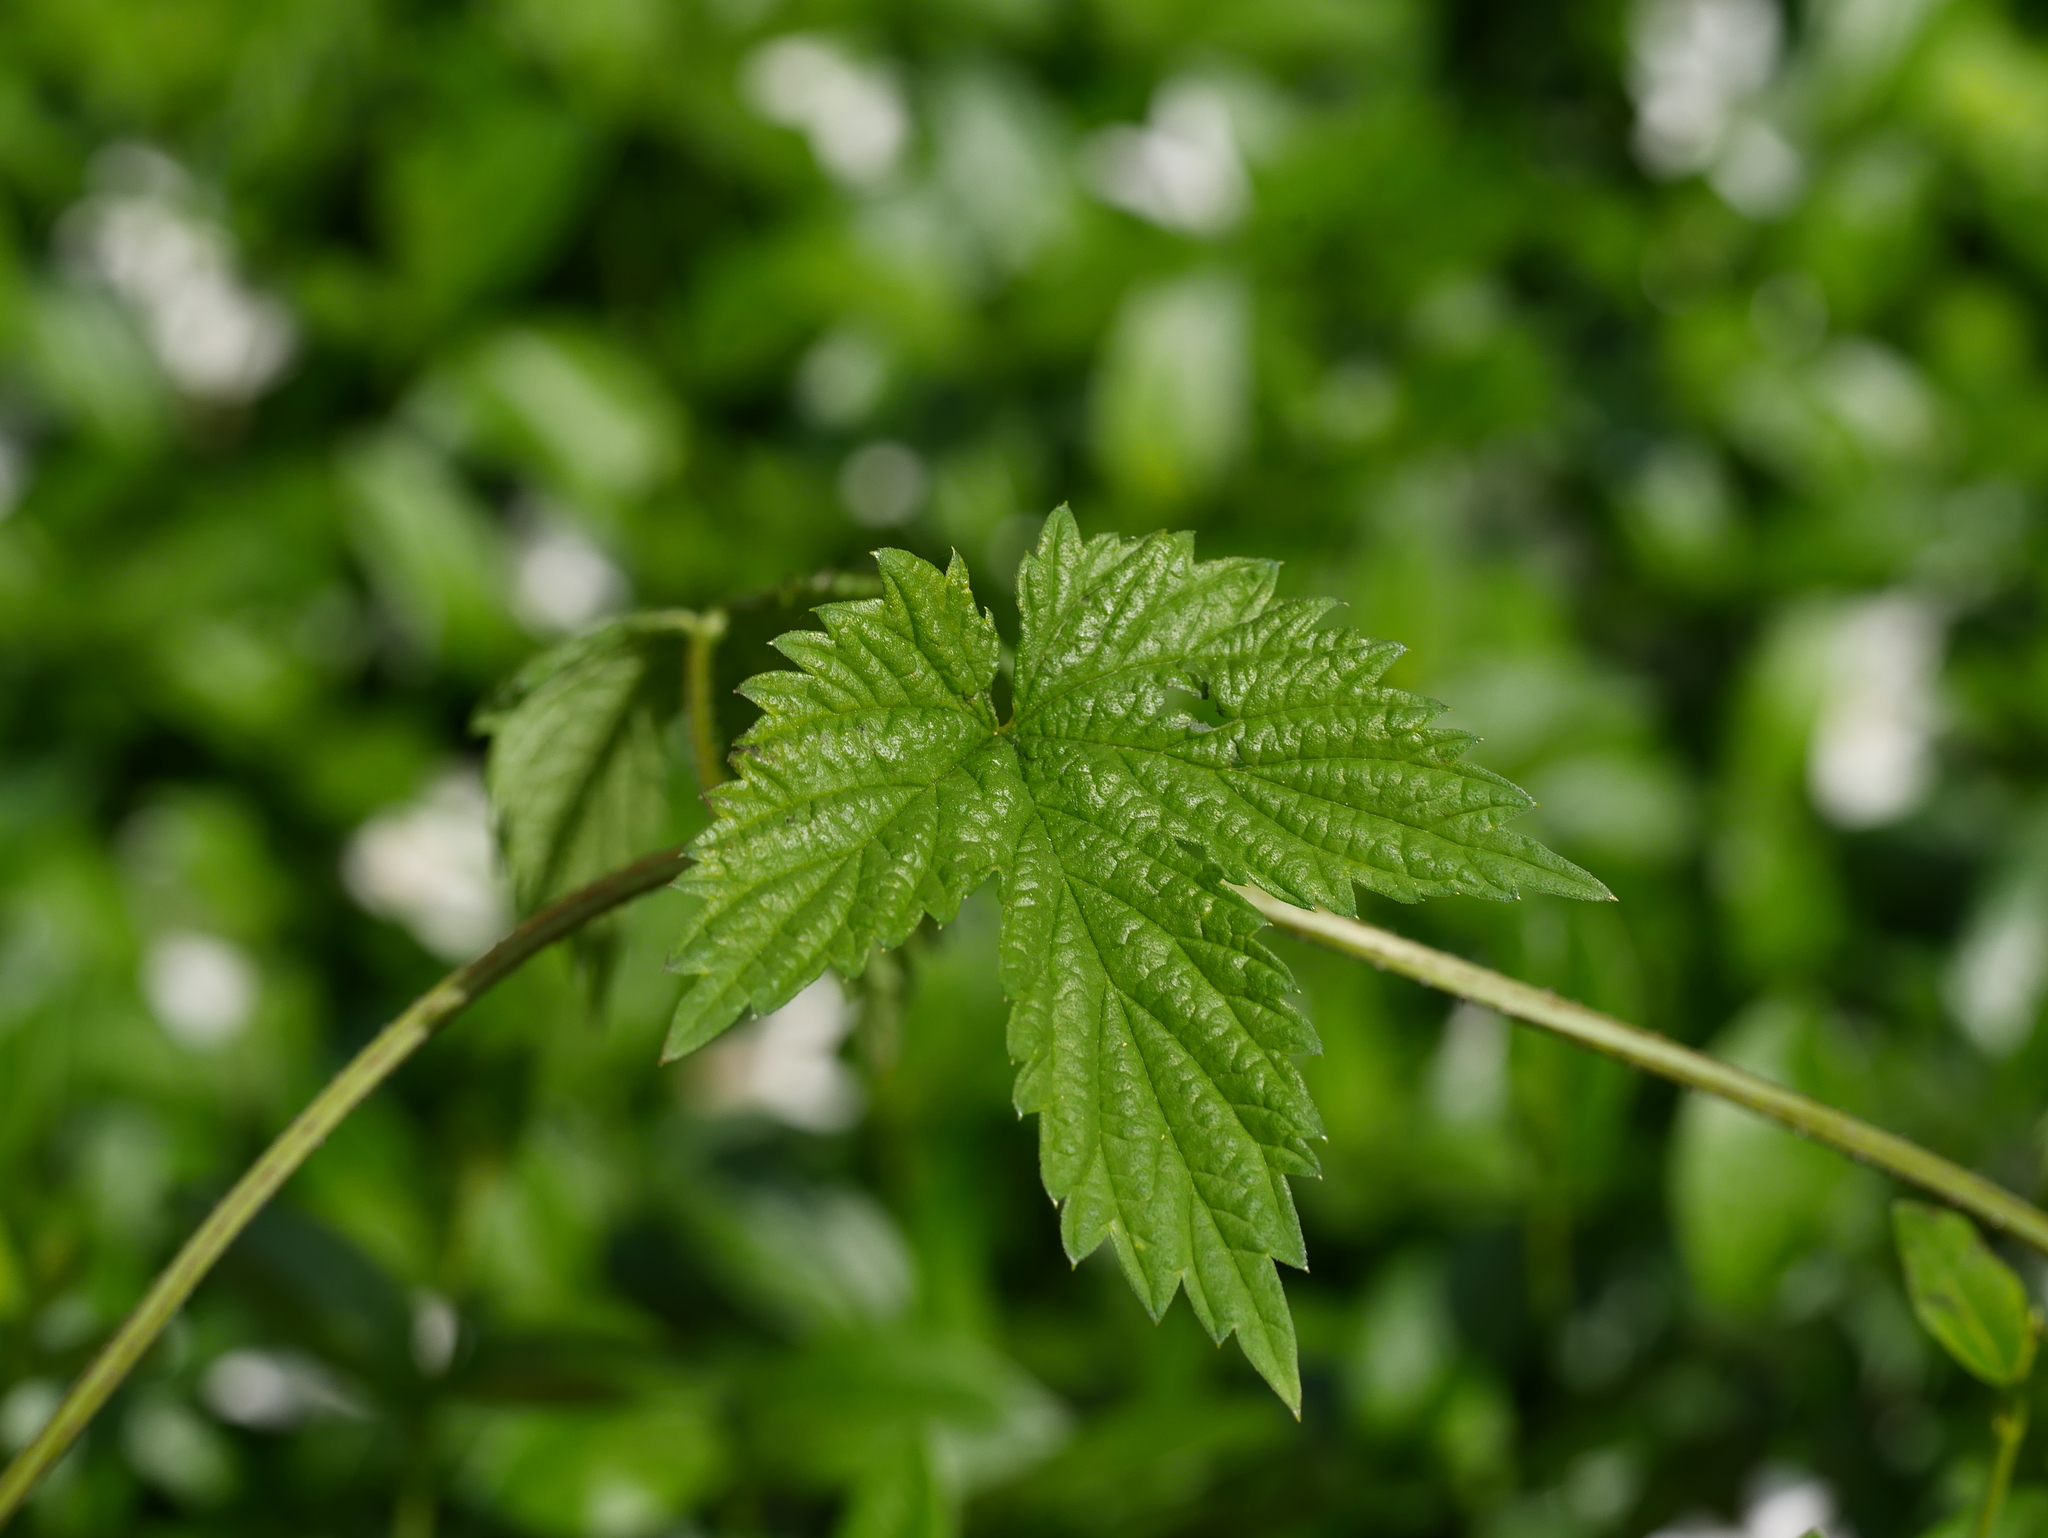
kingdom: Plantae
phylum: Tracheophyta
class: Magnoliopsida
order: Rosales
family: Cannabaceae
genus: Humulus
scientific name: Humulus lupulus
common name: Hop
